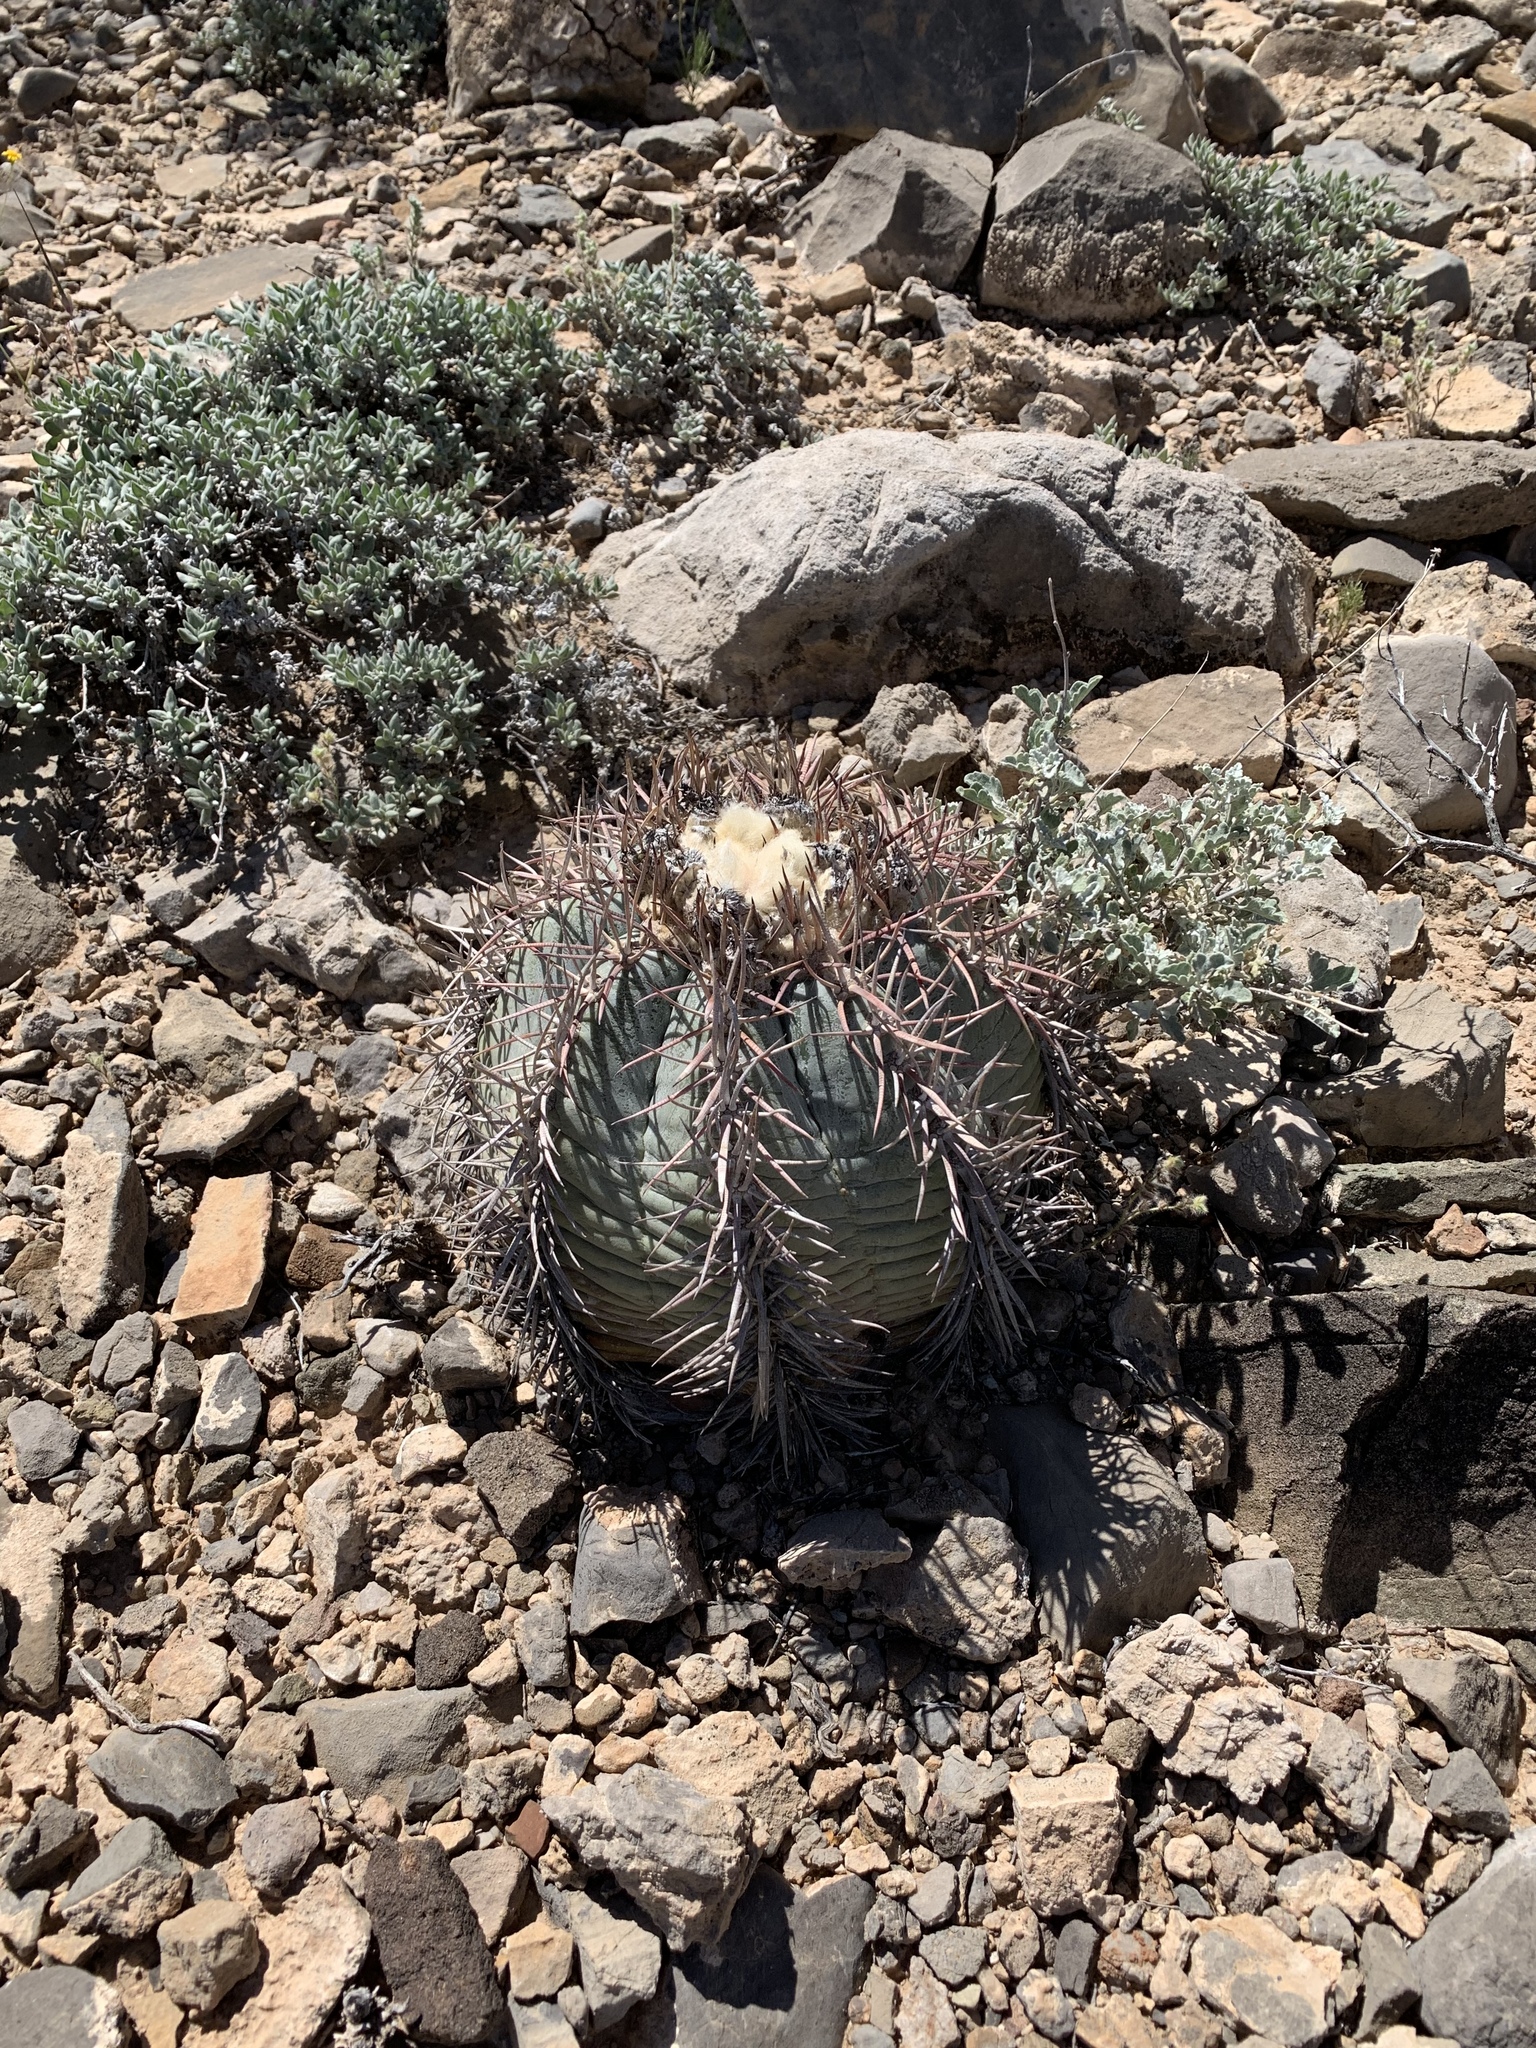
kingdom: Plantae
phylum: Tracheophyta
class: Magnoliopsida
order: Caryophyllales
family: Cactaceae
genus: Echinocactus
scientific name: Echinocactus horizonthalonius
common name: Devilshead
